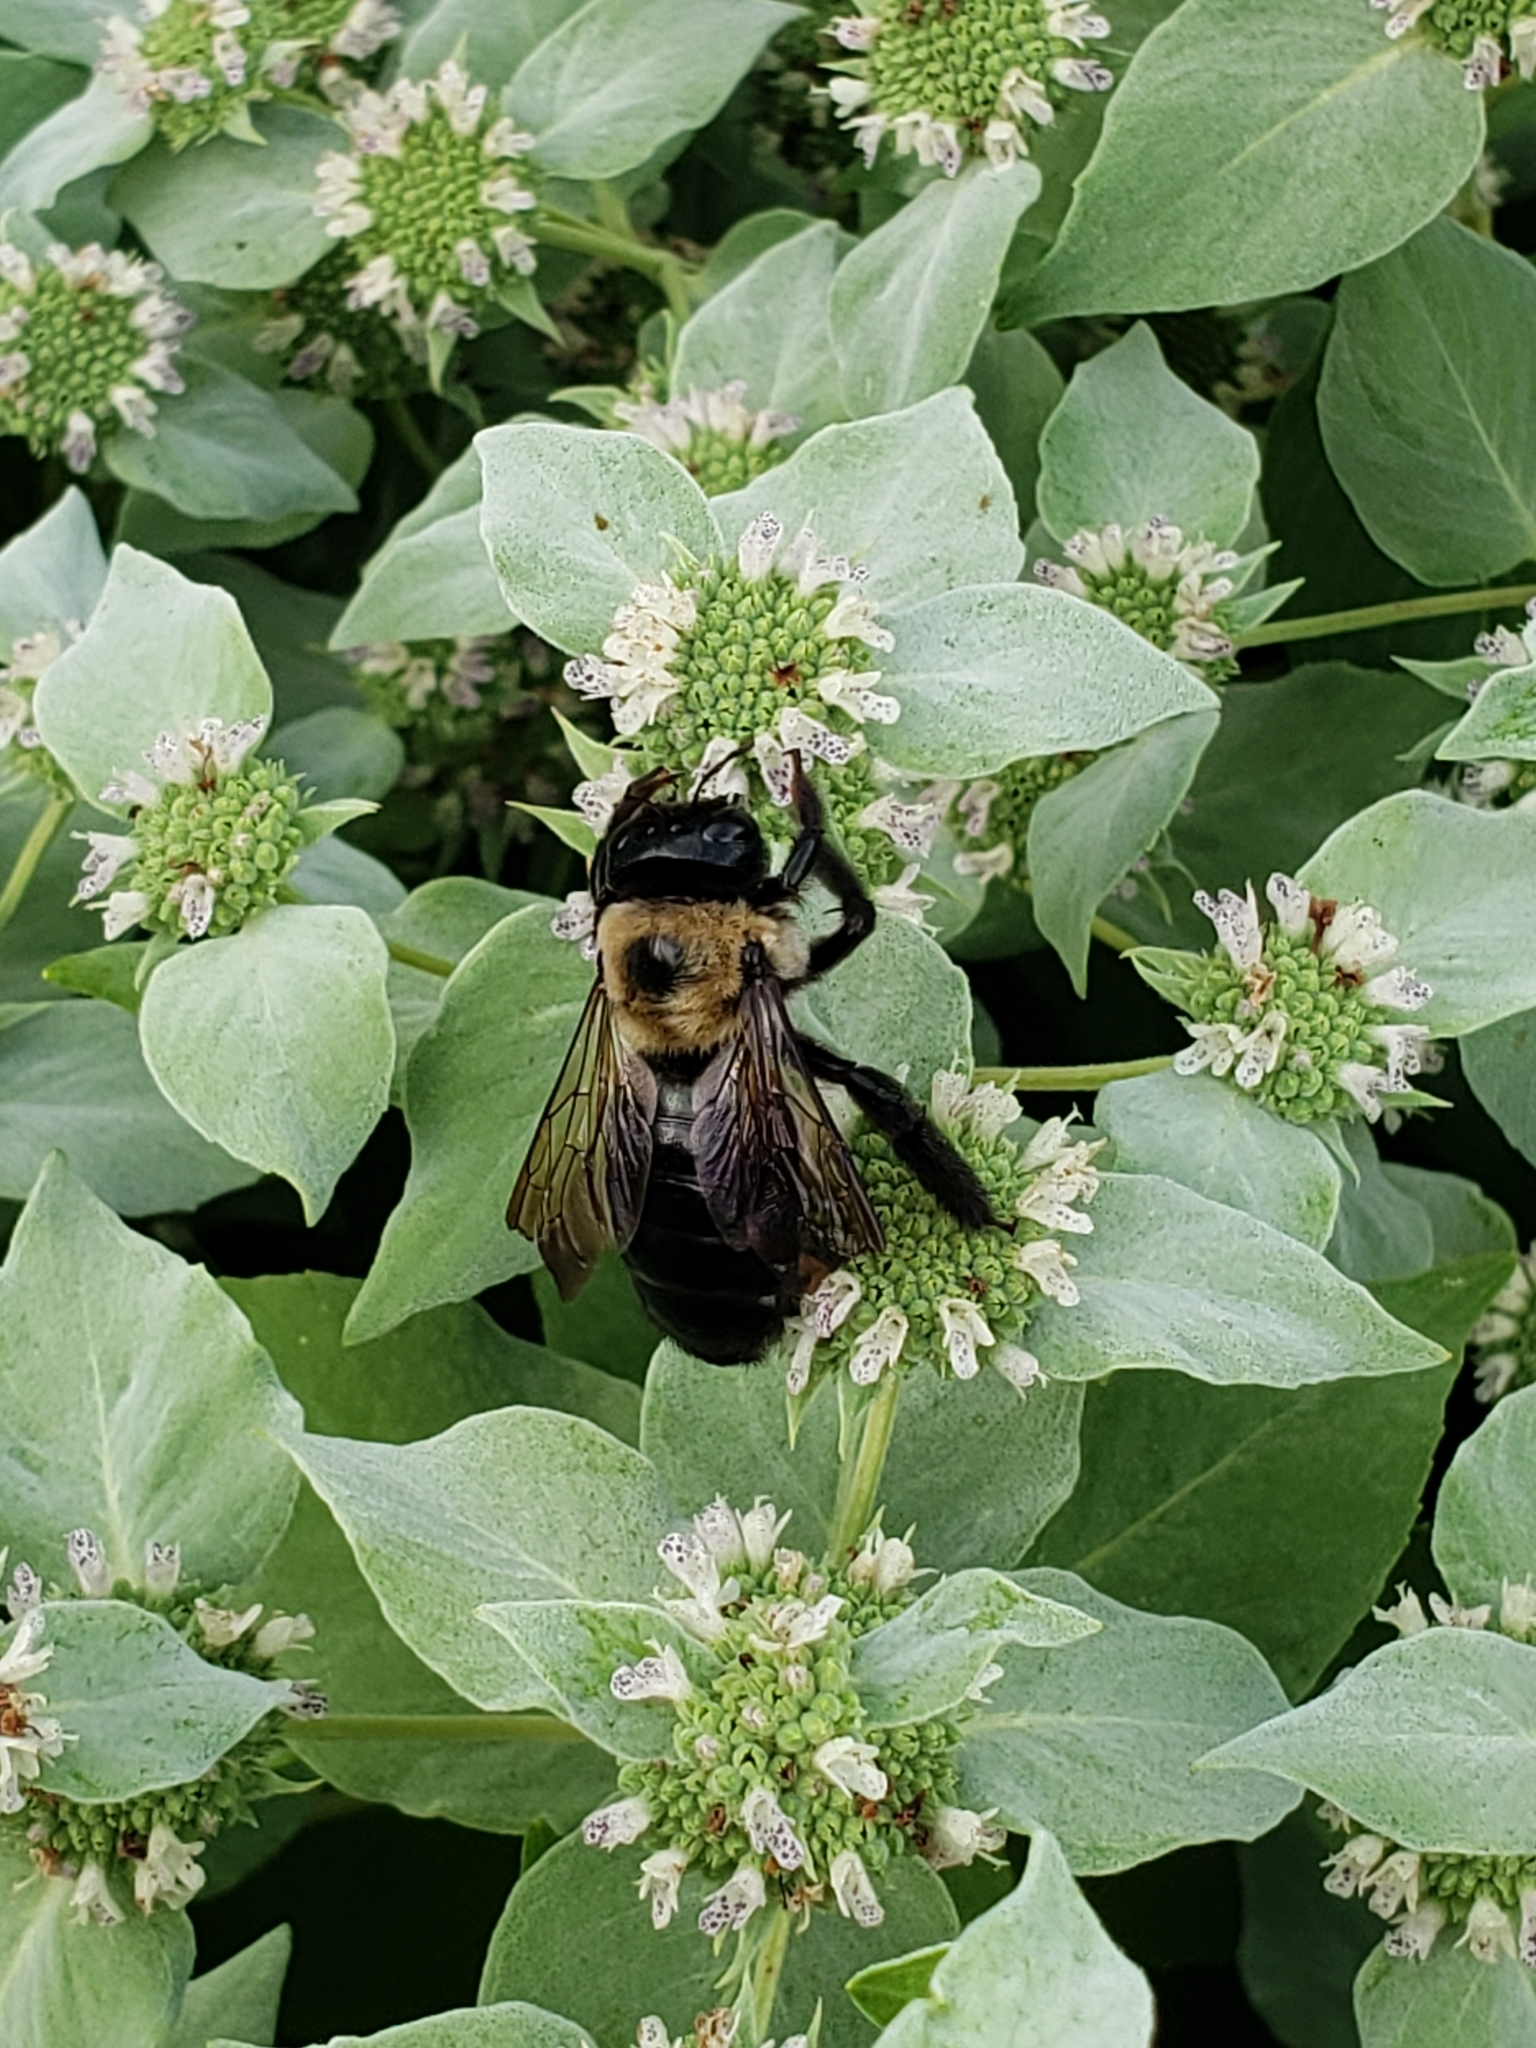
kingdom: Animalia
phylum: Arthropoda
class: Insecta
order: Hymenoptera
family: Apidae
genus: Xylocopa
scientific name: Xylocopa virginica
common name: Carpenter bee
